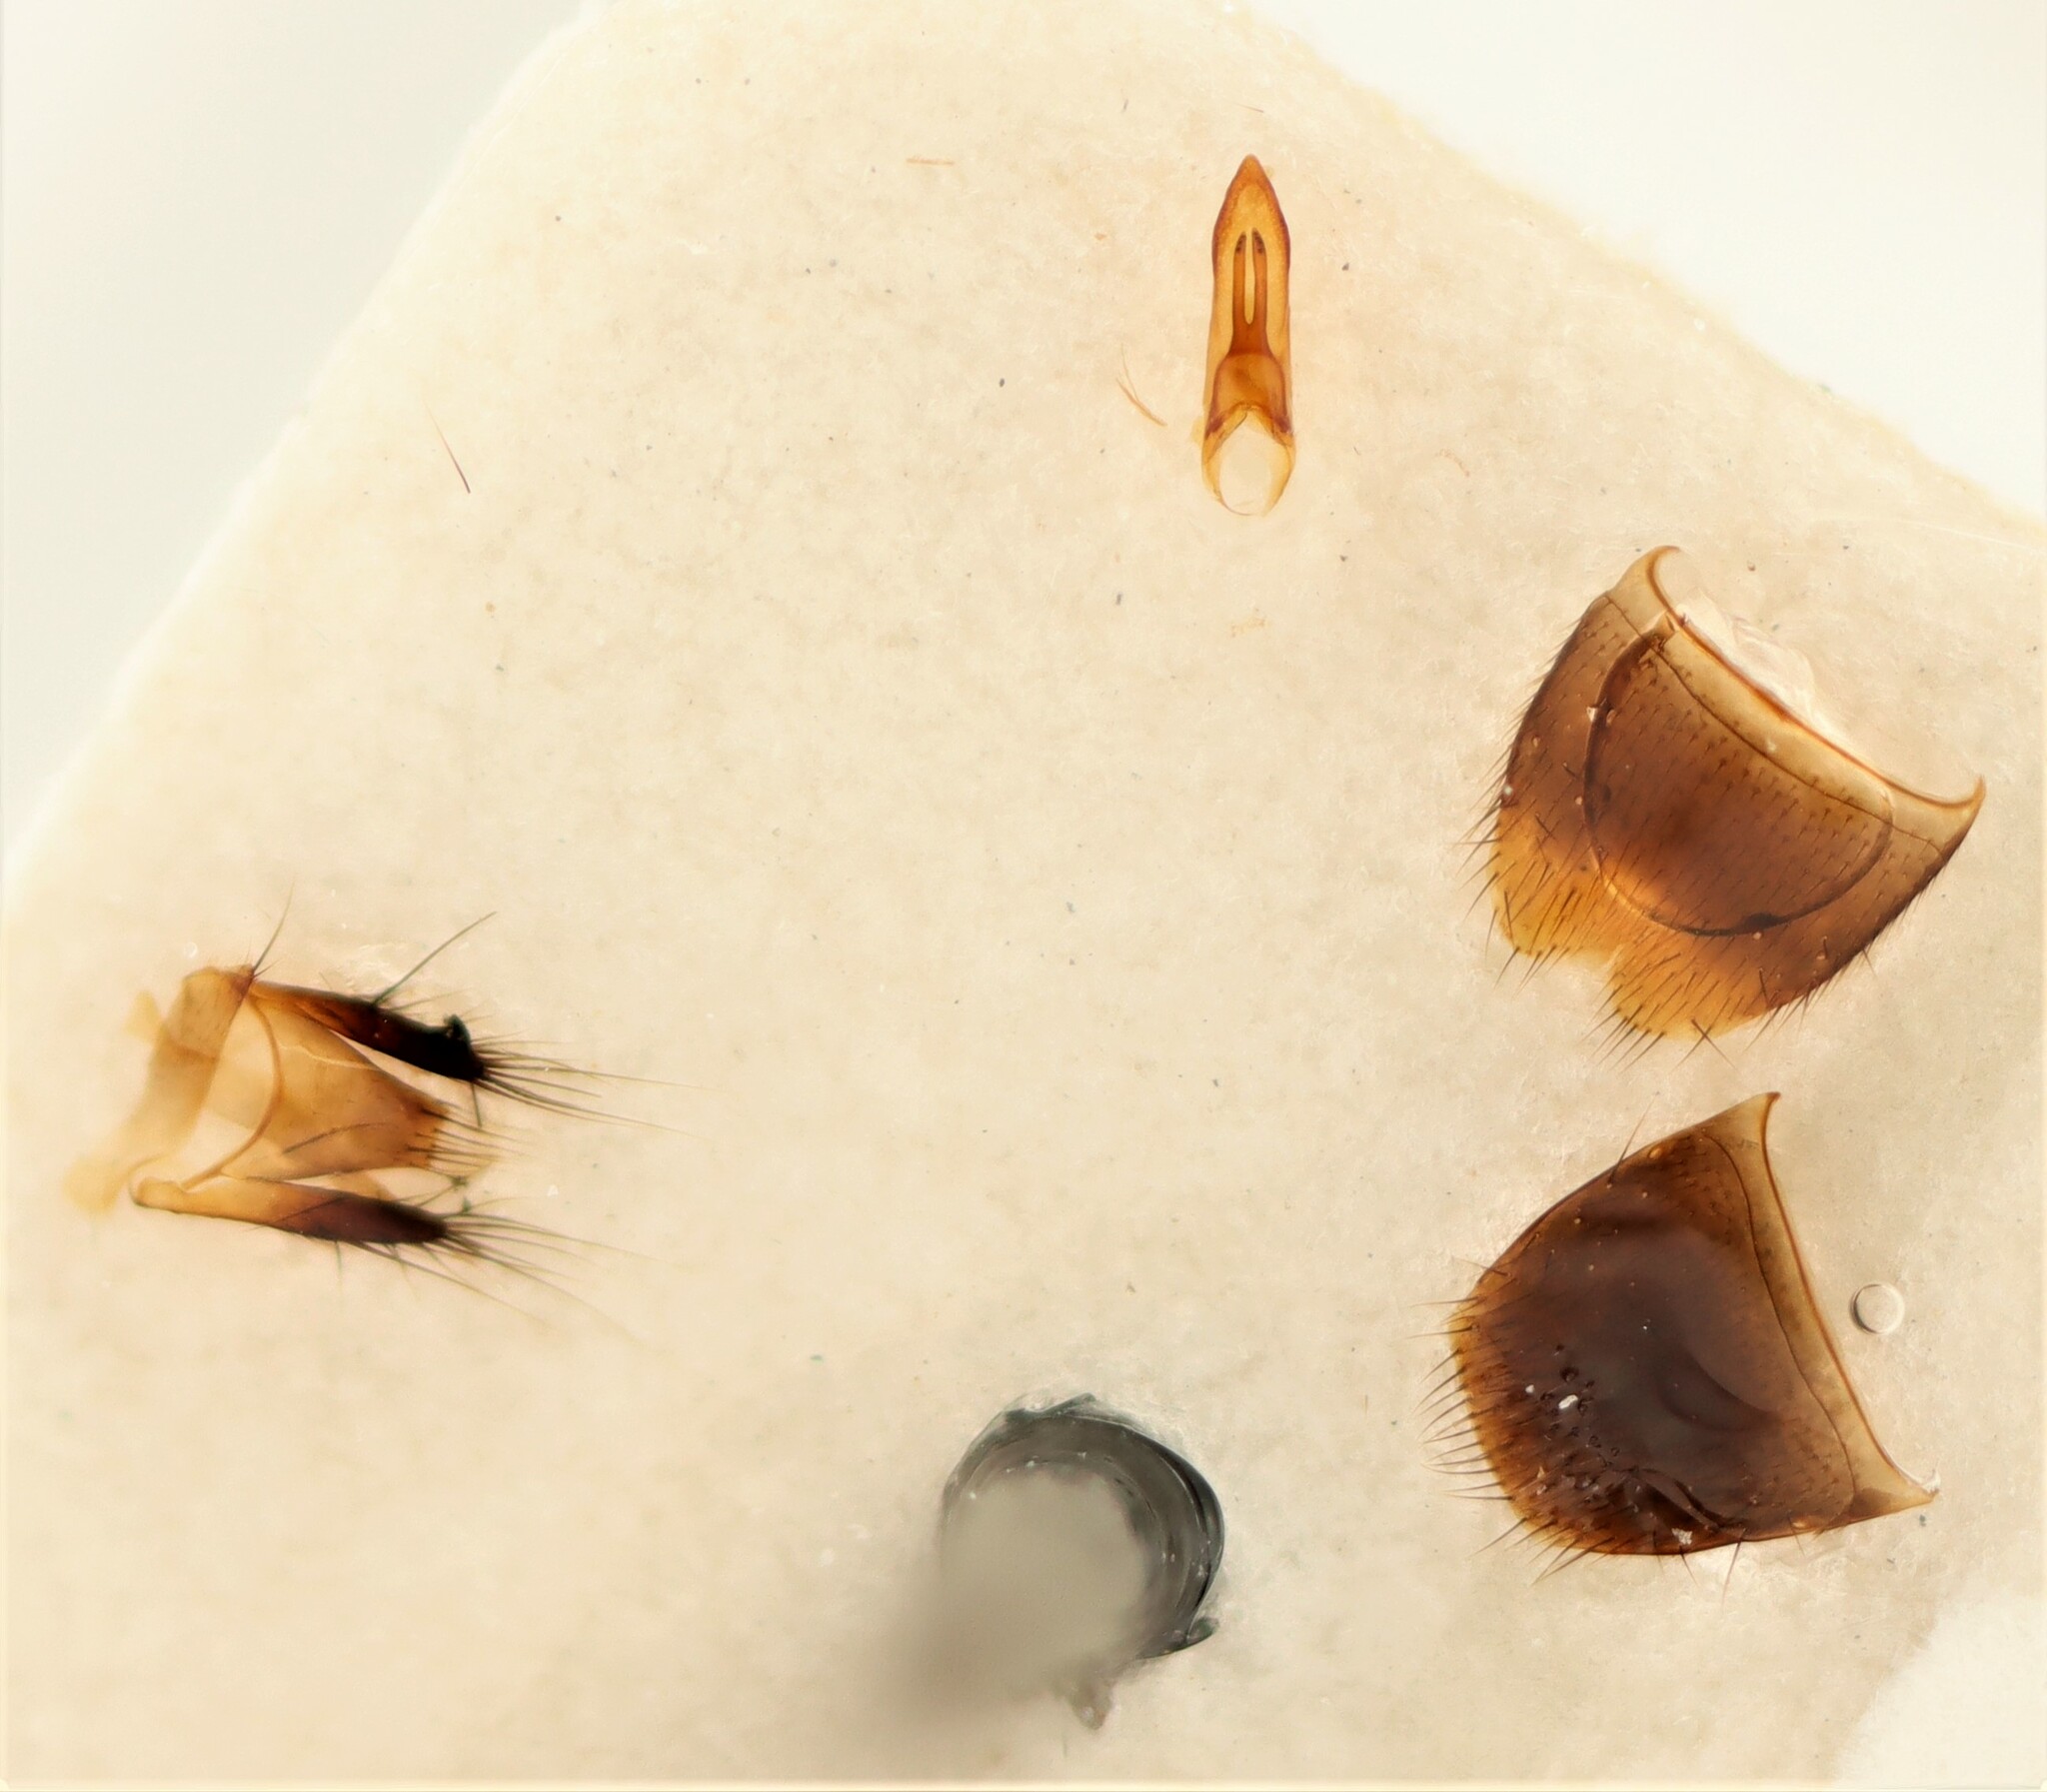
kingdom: Animalia
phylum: Arthropoda
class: Insecta
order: Coleoptera
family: Staphylinidae
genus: Philonthus
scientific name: Philonthus discoideus
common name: Rove beetle
